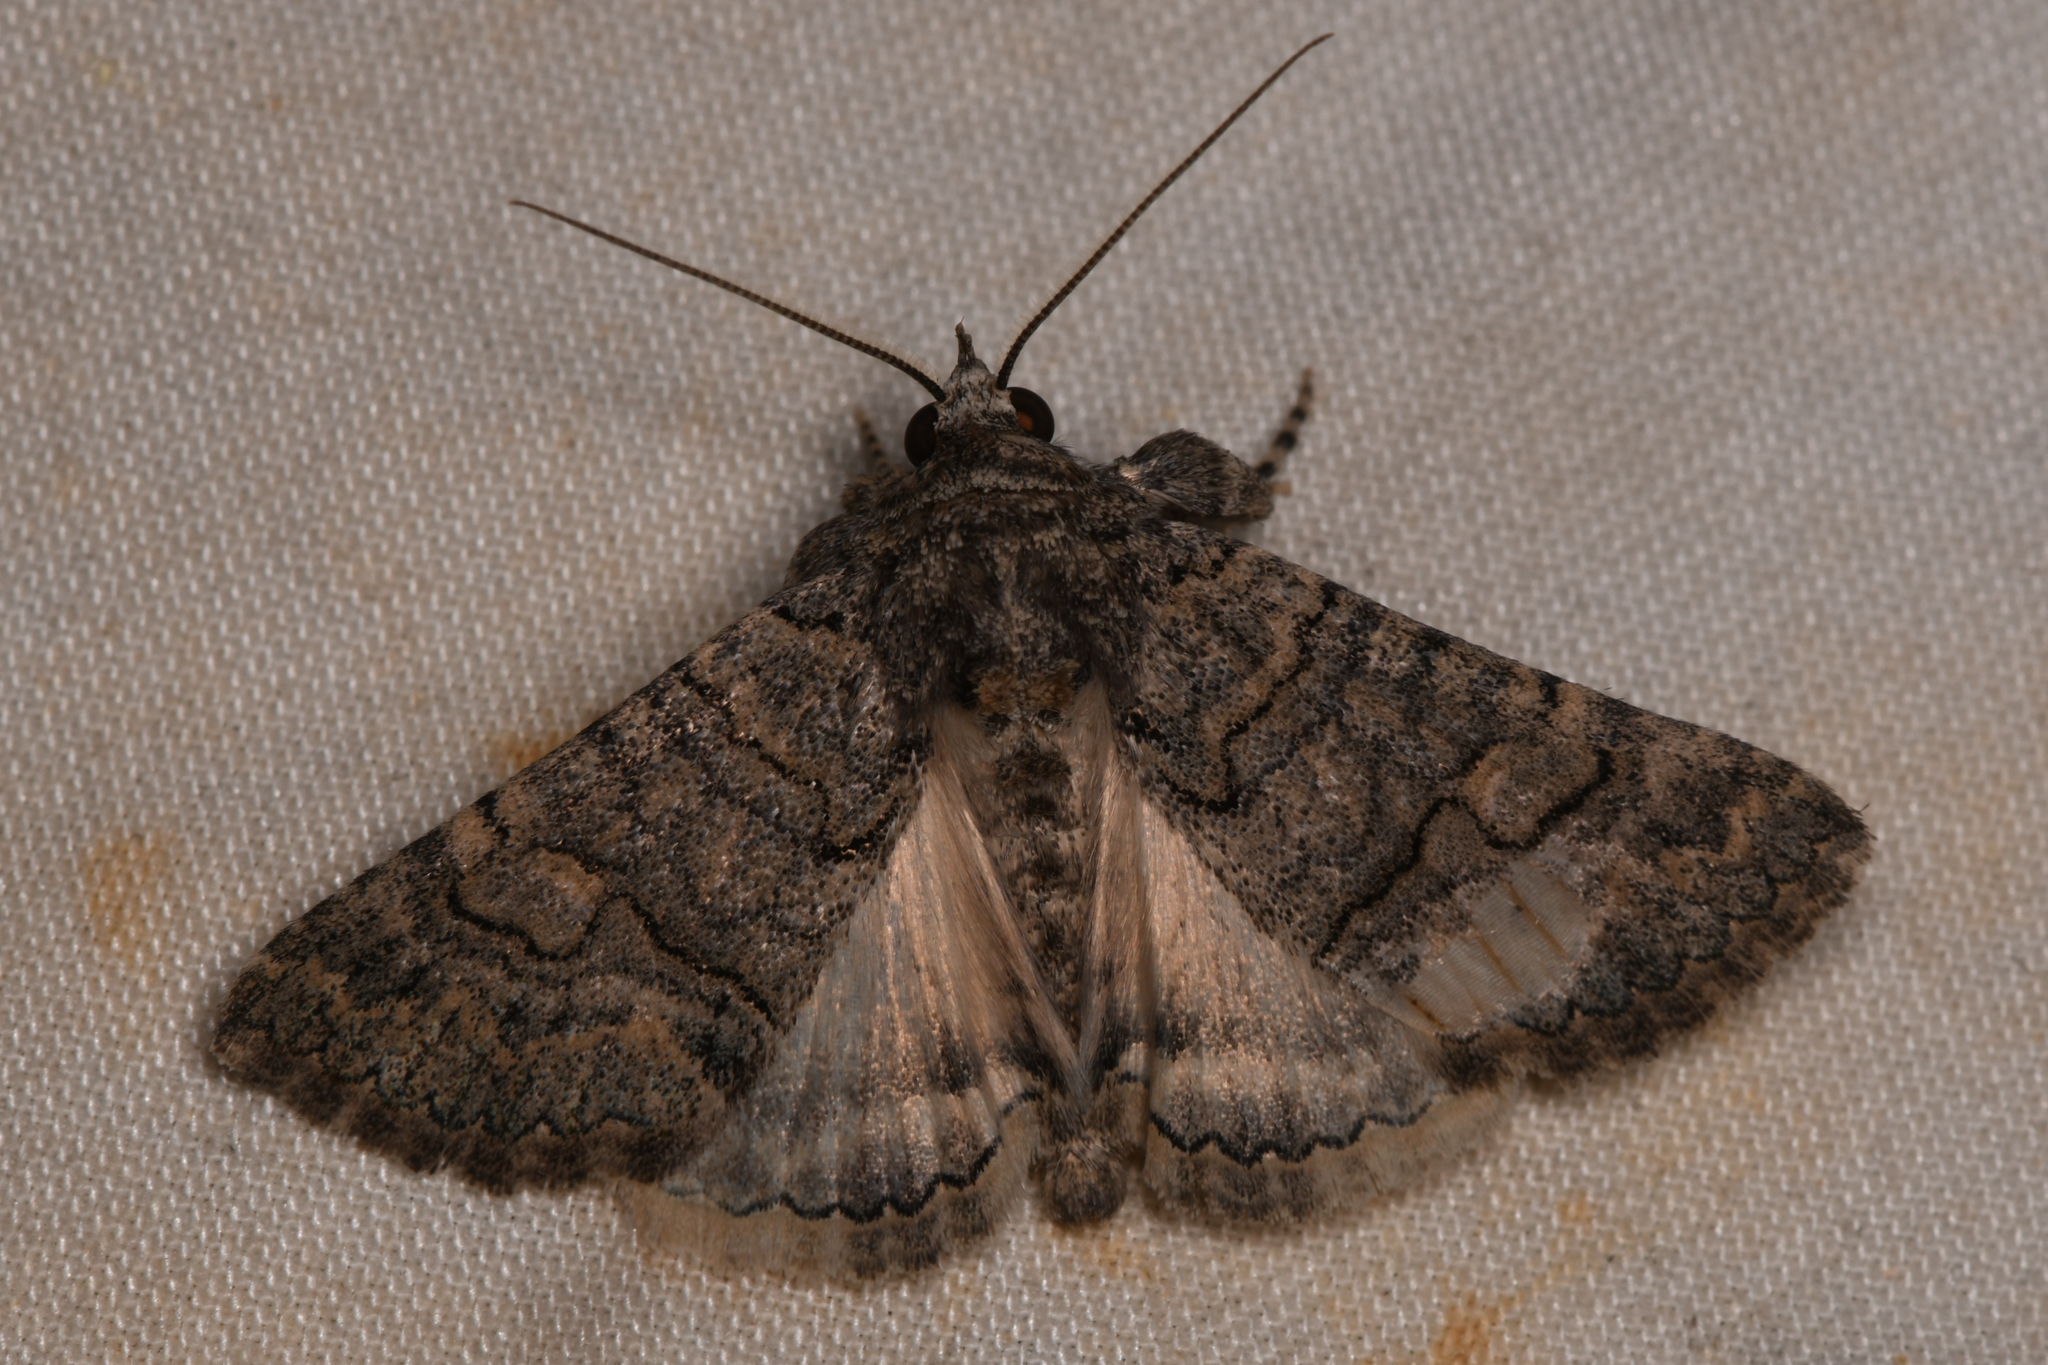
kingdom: Animalia
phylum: Arthropoda
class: Insecta
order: Lepidoptera
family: Erebidae
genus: Elousa
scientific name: Elousa mima
